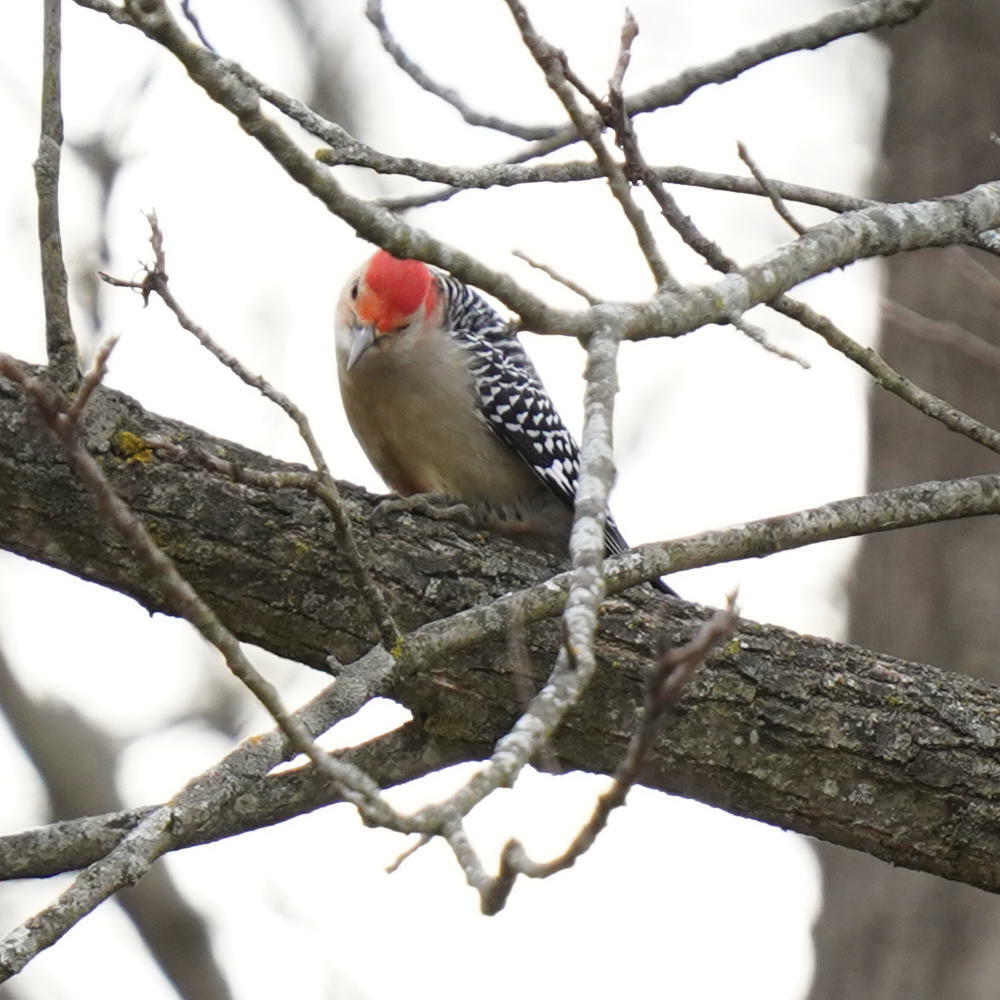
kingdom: Animalia
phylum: Chordata
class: Aves
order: Piciformes
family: Picidae
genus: Melanerpes
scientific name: Melanerpes carolinus
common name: Red-bellied woodpecker
